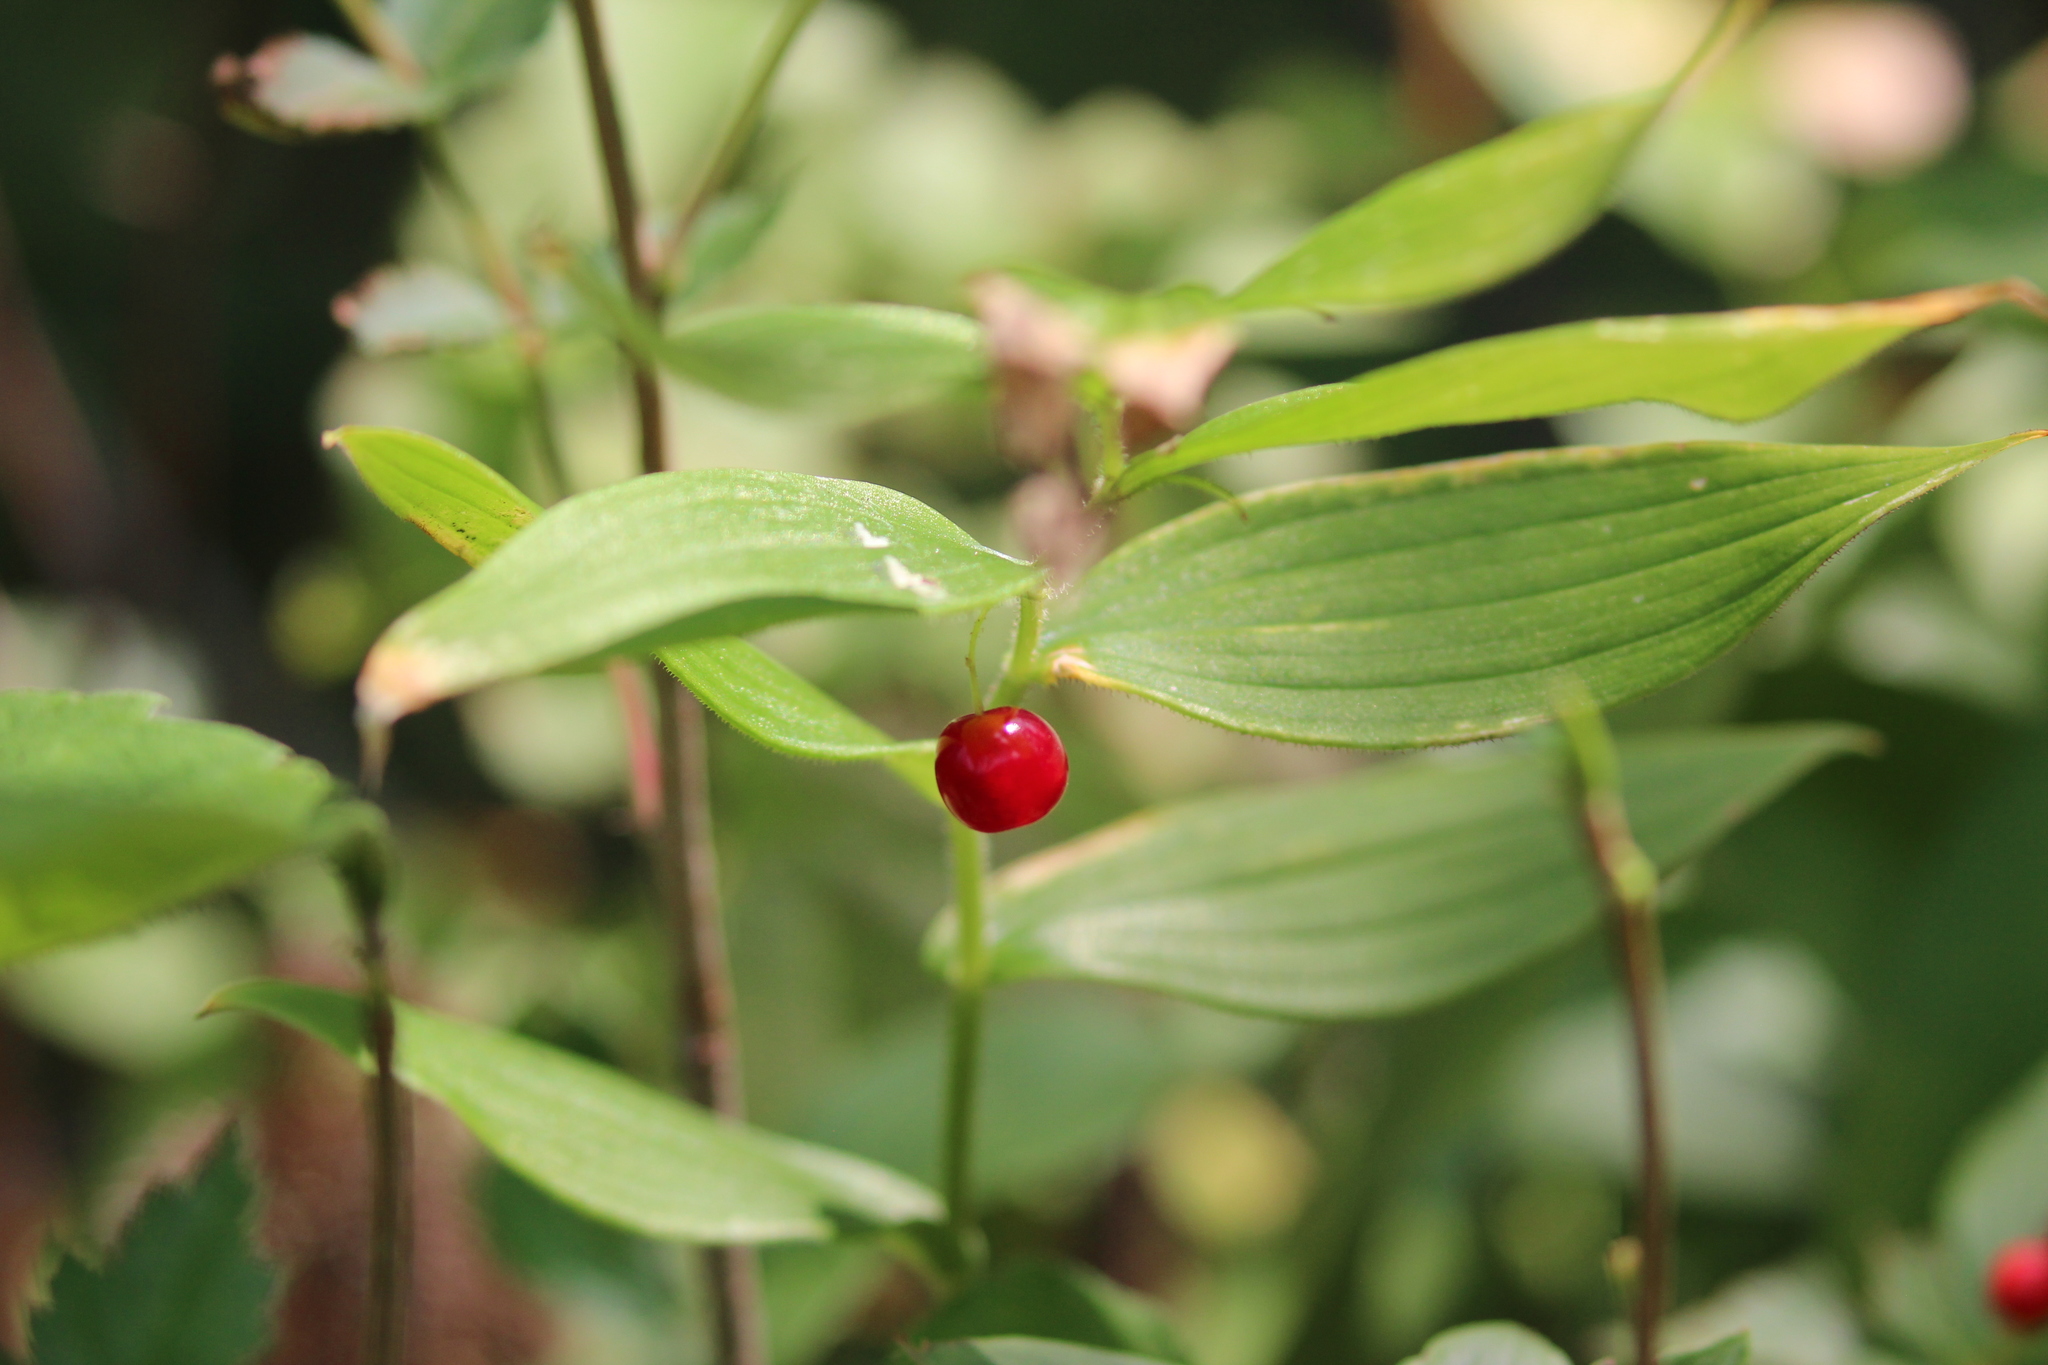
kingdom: Plantae
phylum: Tracheophyta
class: Liliopsida
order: Liliales
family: Liliaceae
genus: Streptopus
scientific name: Streptopus lanceolatus
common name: Rose mandarin
